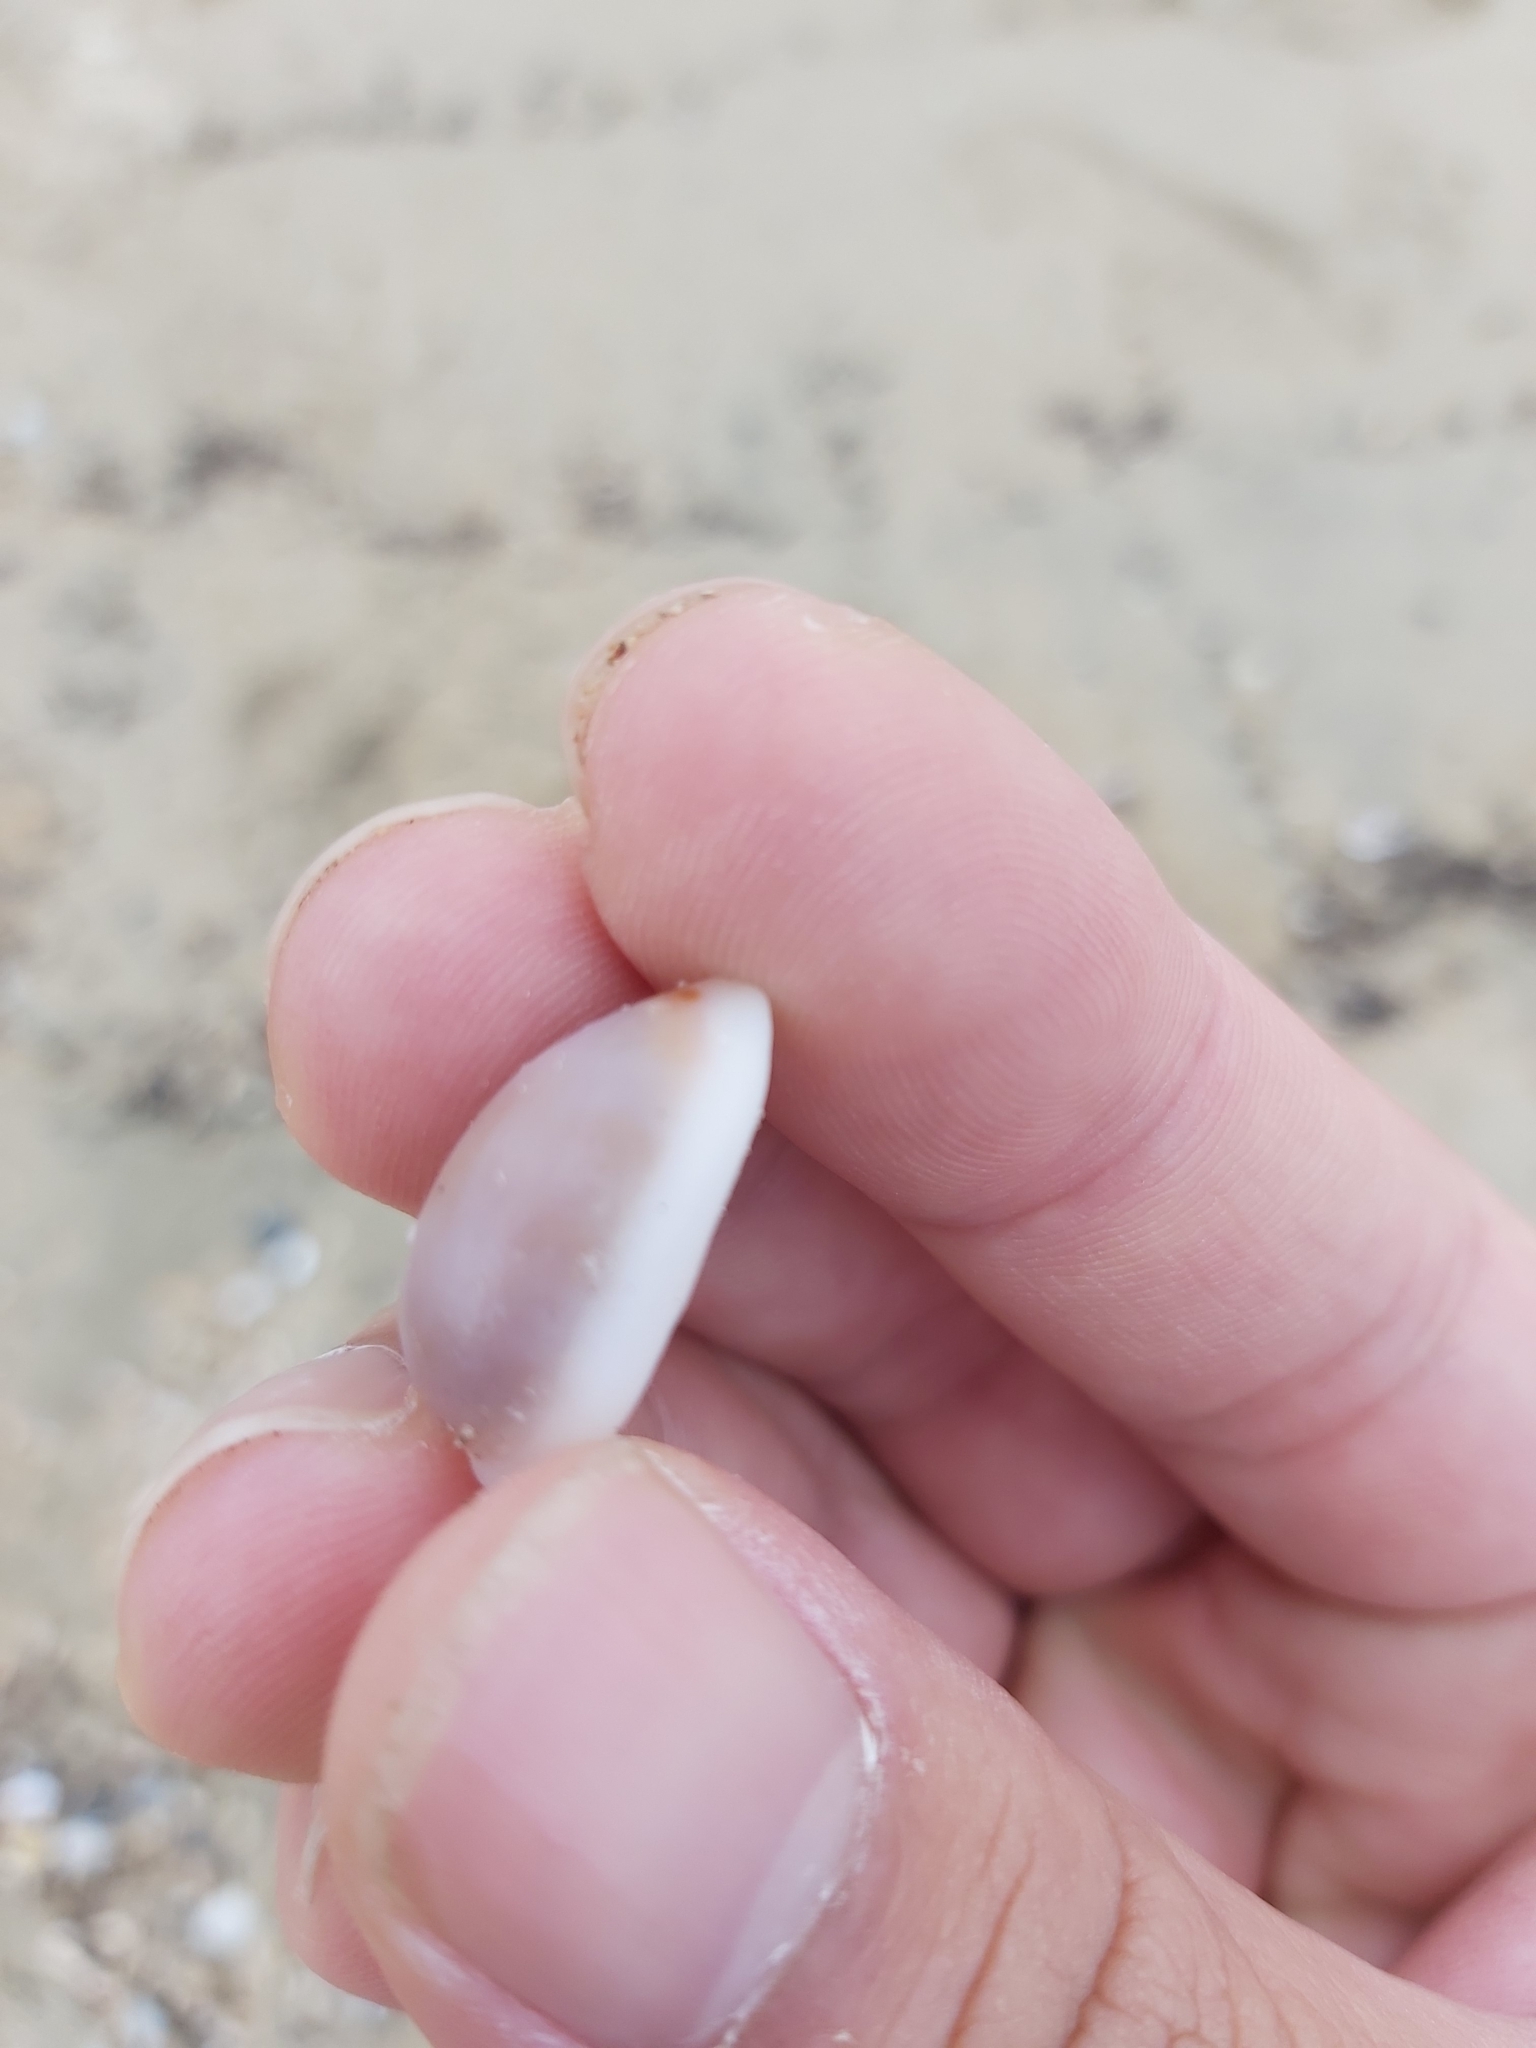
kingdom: Animalia
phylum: Mollusca
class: Gastropoda
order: Littorinimorpha
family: Cypraeidae
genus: Erronea
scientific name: Erronea errones
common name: Mistaken cowrie
